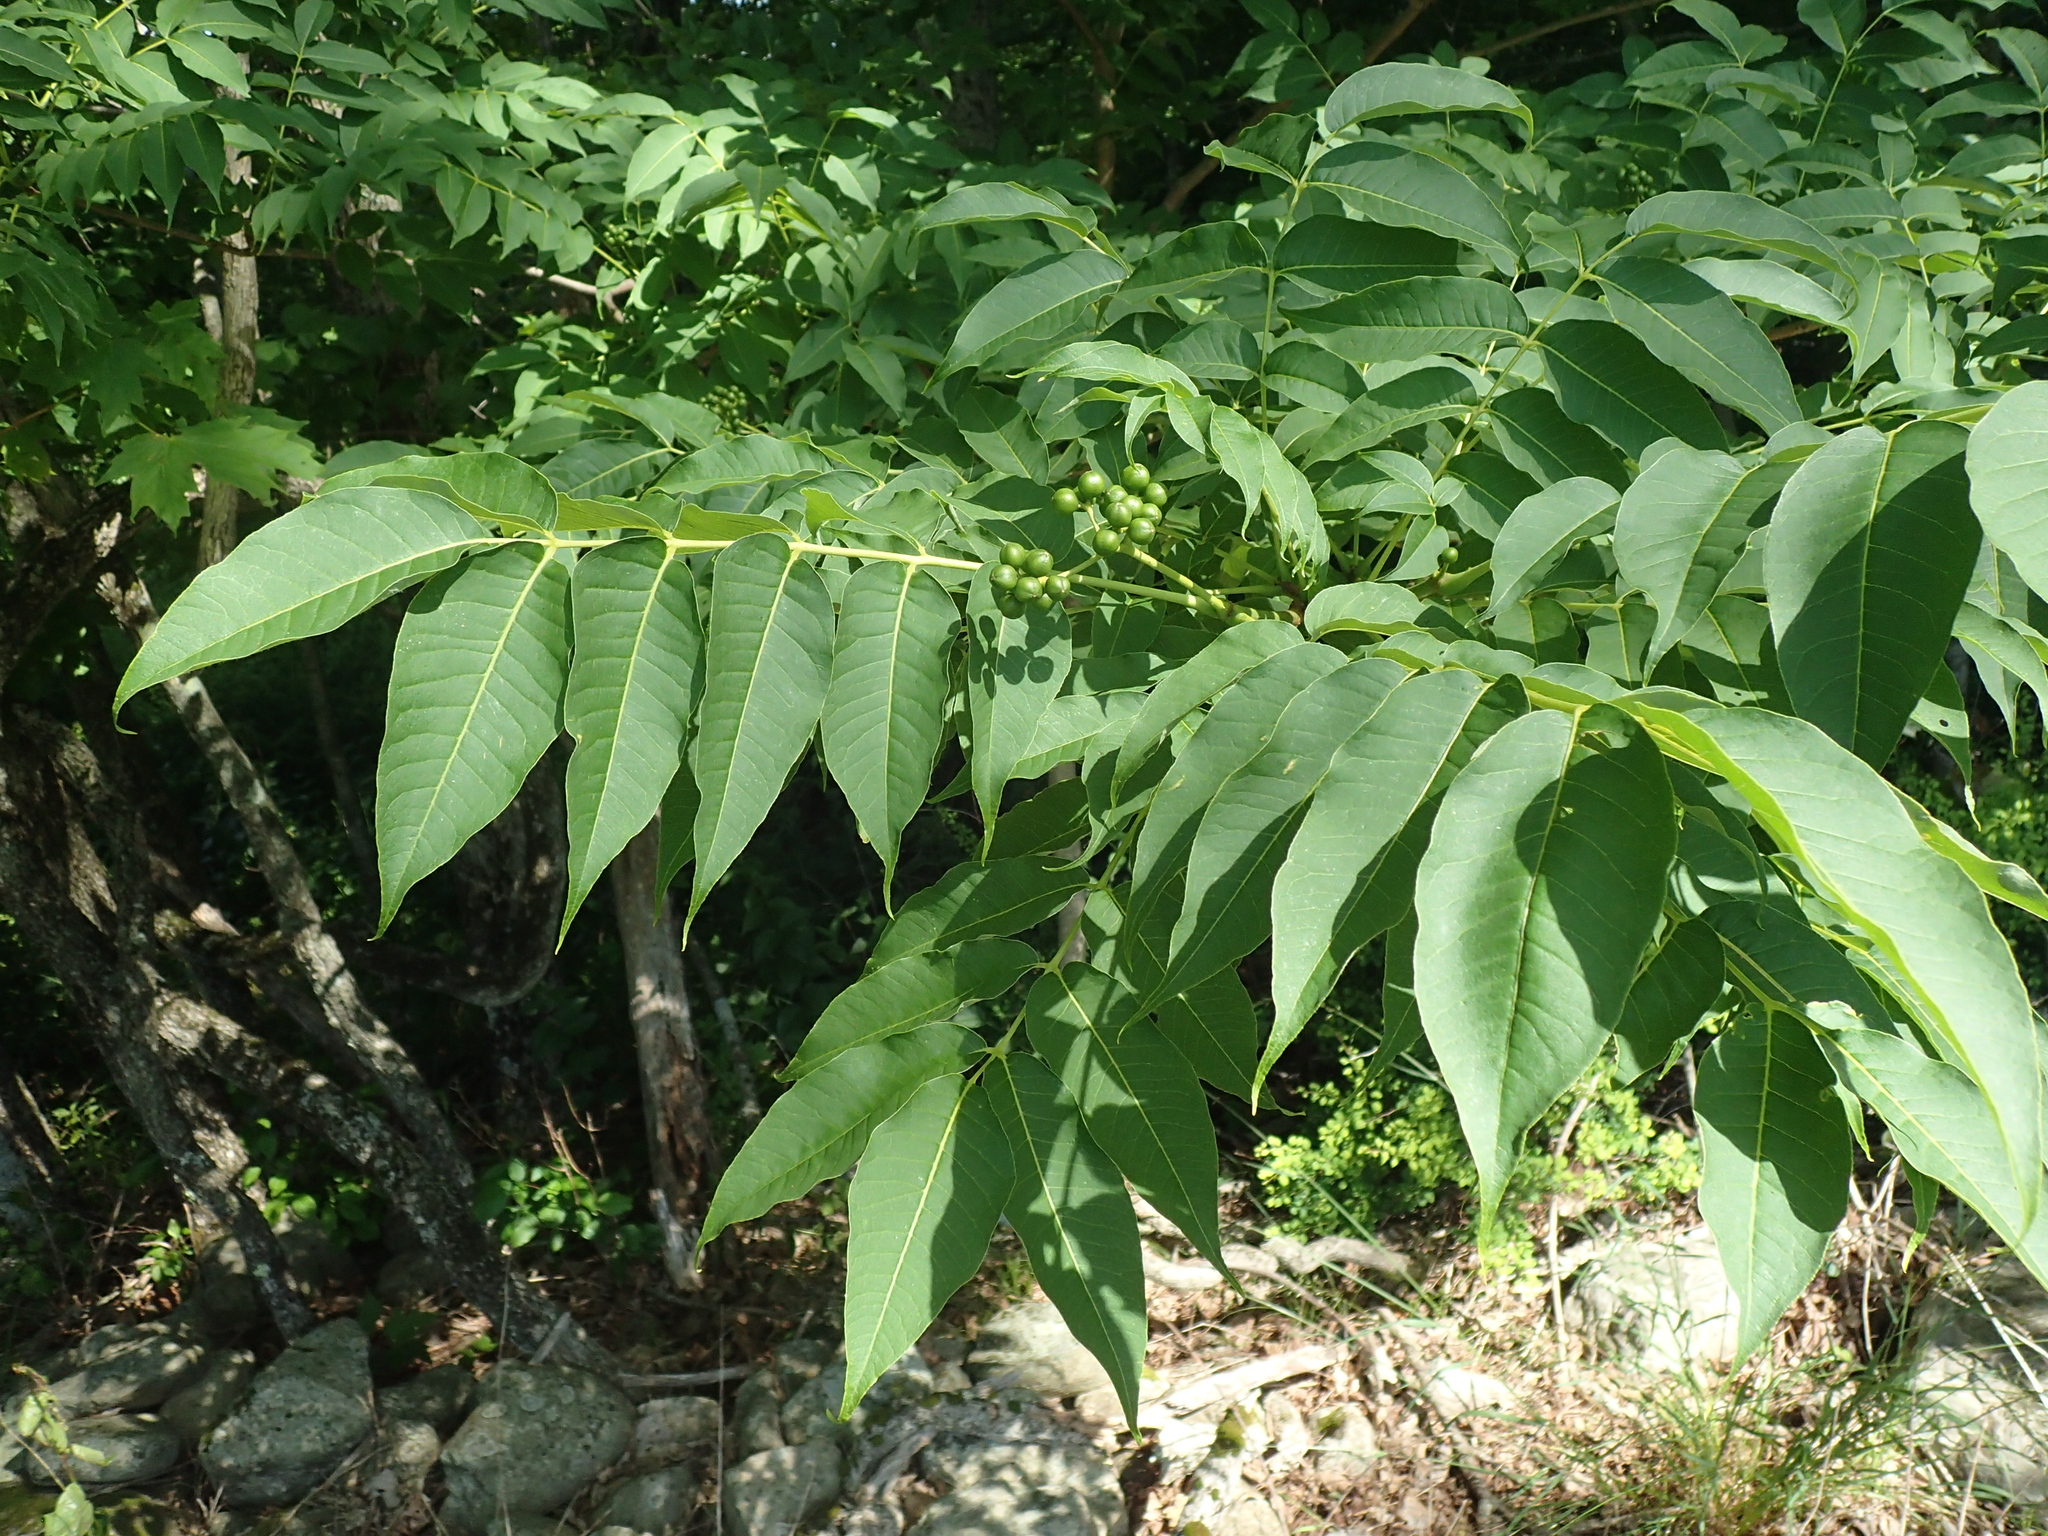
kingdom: Plantae
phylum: Tracheophyta
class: Magnoliopsida
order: Sapindales
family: Rutaceae
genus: Phellodendron
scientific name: Phellodendron amurense
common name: Amur corktree
